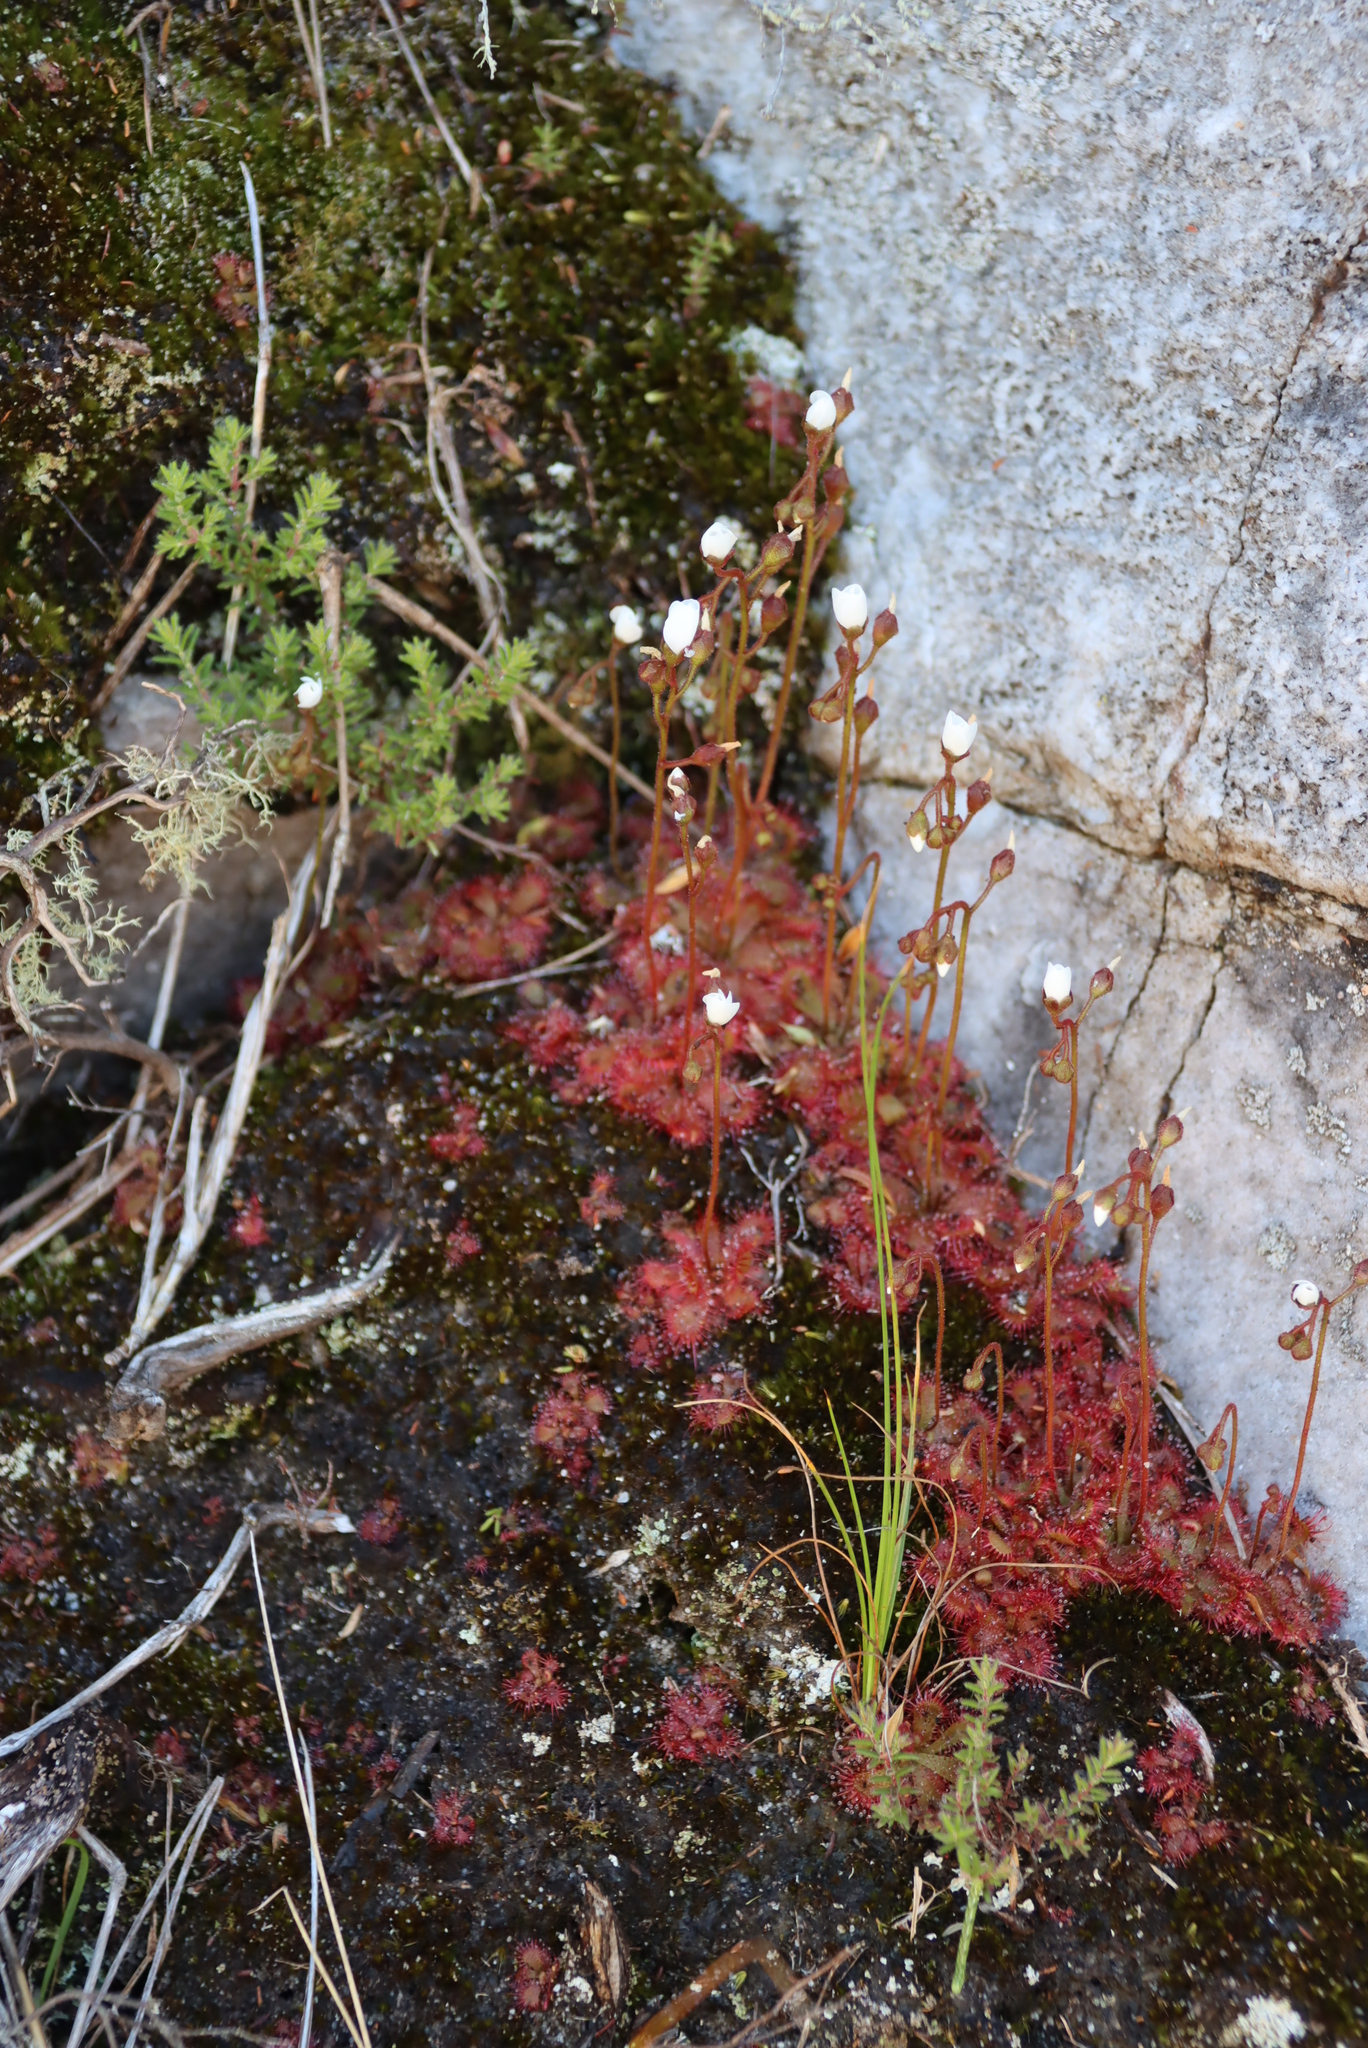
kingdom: Plantae
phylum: Tracheophyta
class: Magnoliopsida
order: Caryophyllales
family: Droseraceae
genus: Drosera
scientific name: Drosera trinervia
